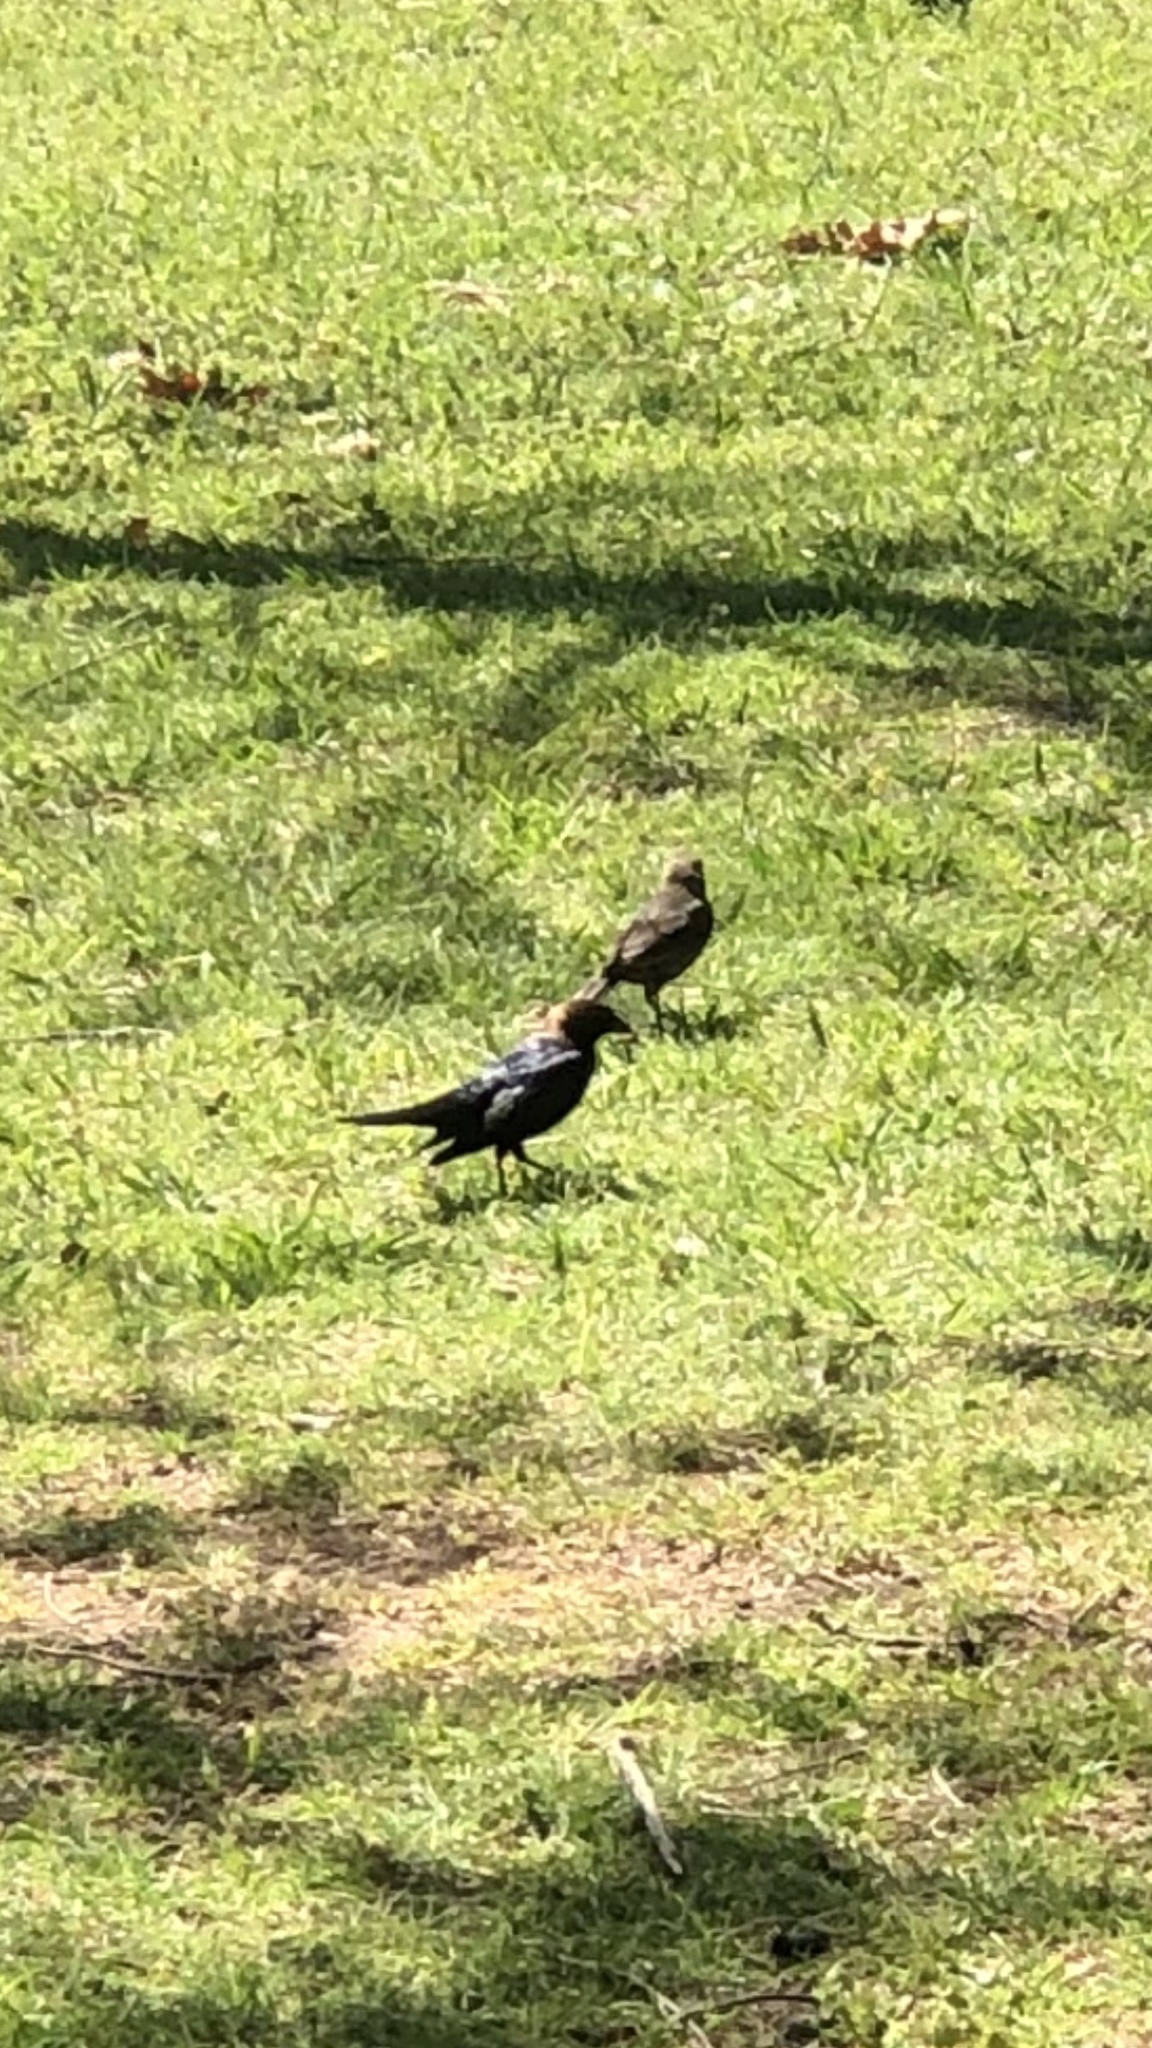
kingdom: Animalia
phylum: Chordata
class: Aves
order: Passeriformes
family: Icteridae
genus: Molothrus
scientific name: Molothrus ater
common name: Brown-headed cowbird
